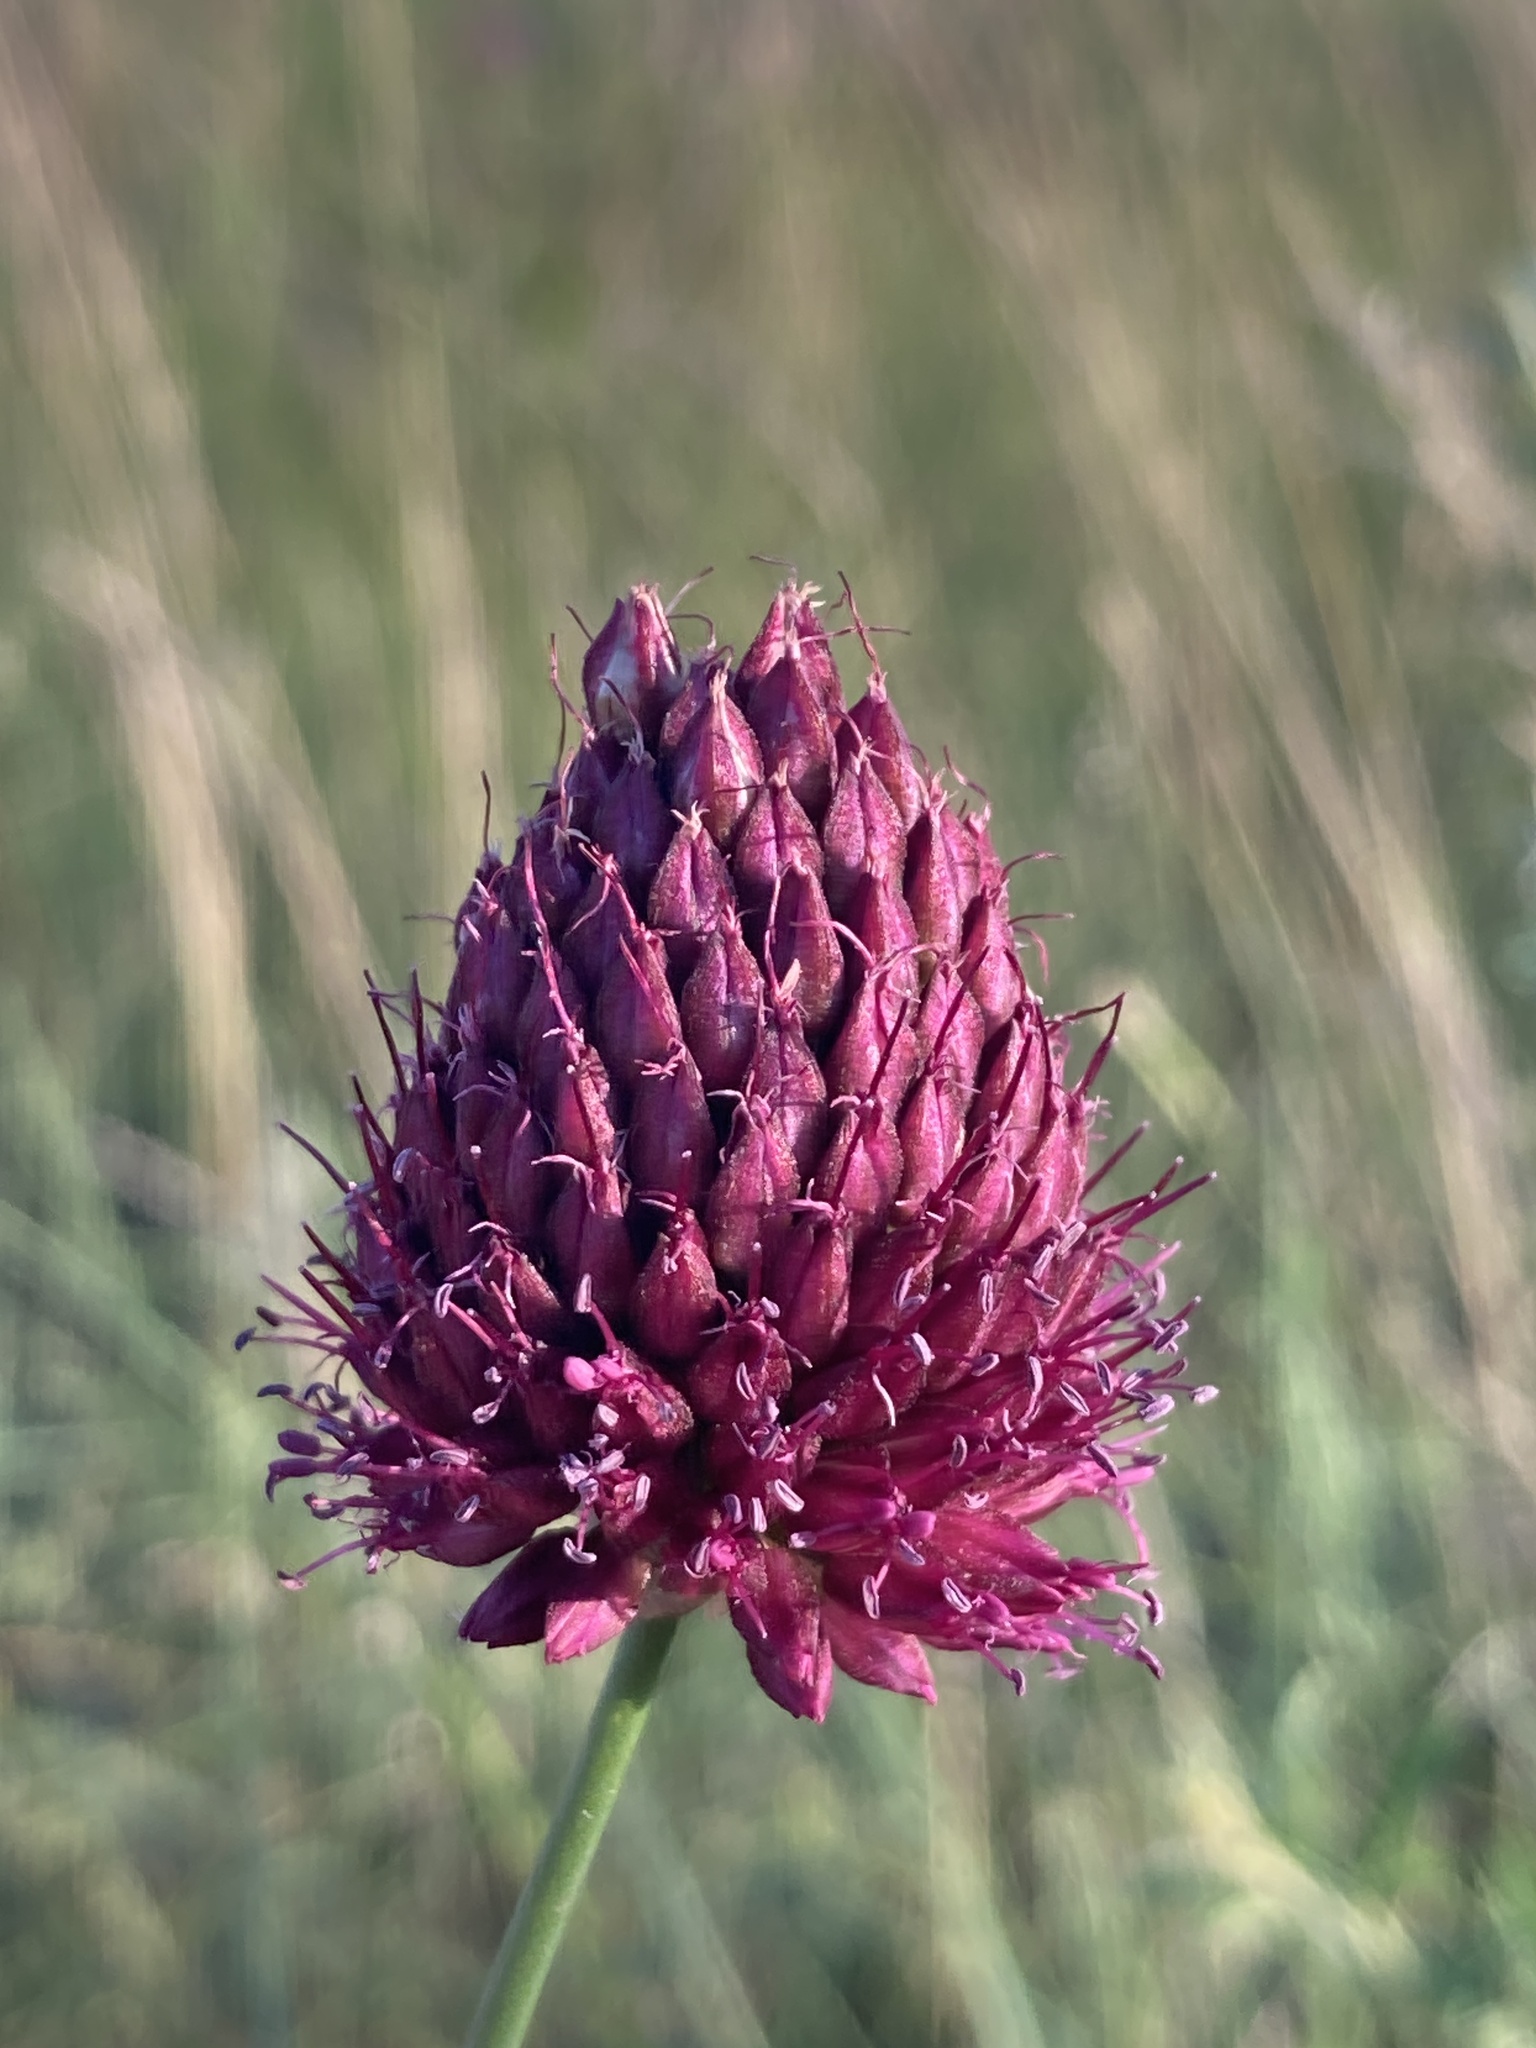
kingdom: Plantae
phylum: Tracheophyta
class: Liliopsida
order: Asparagales
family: Amaryllidaceae
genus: Allium
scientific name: Allium sphaerocephalon
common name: Round-headed leek
